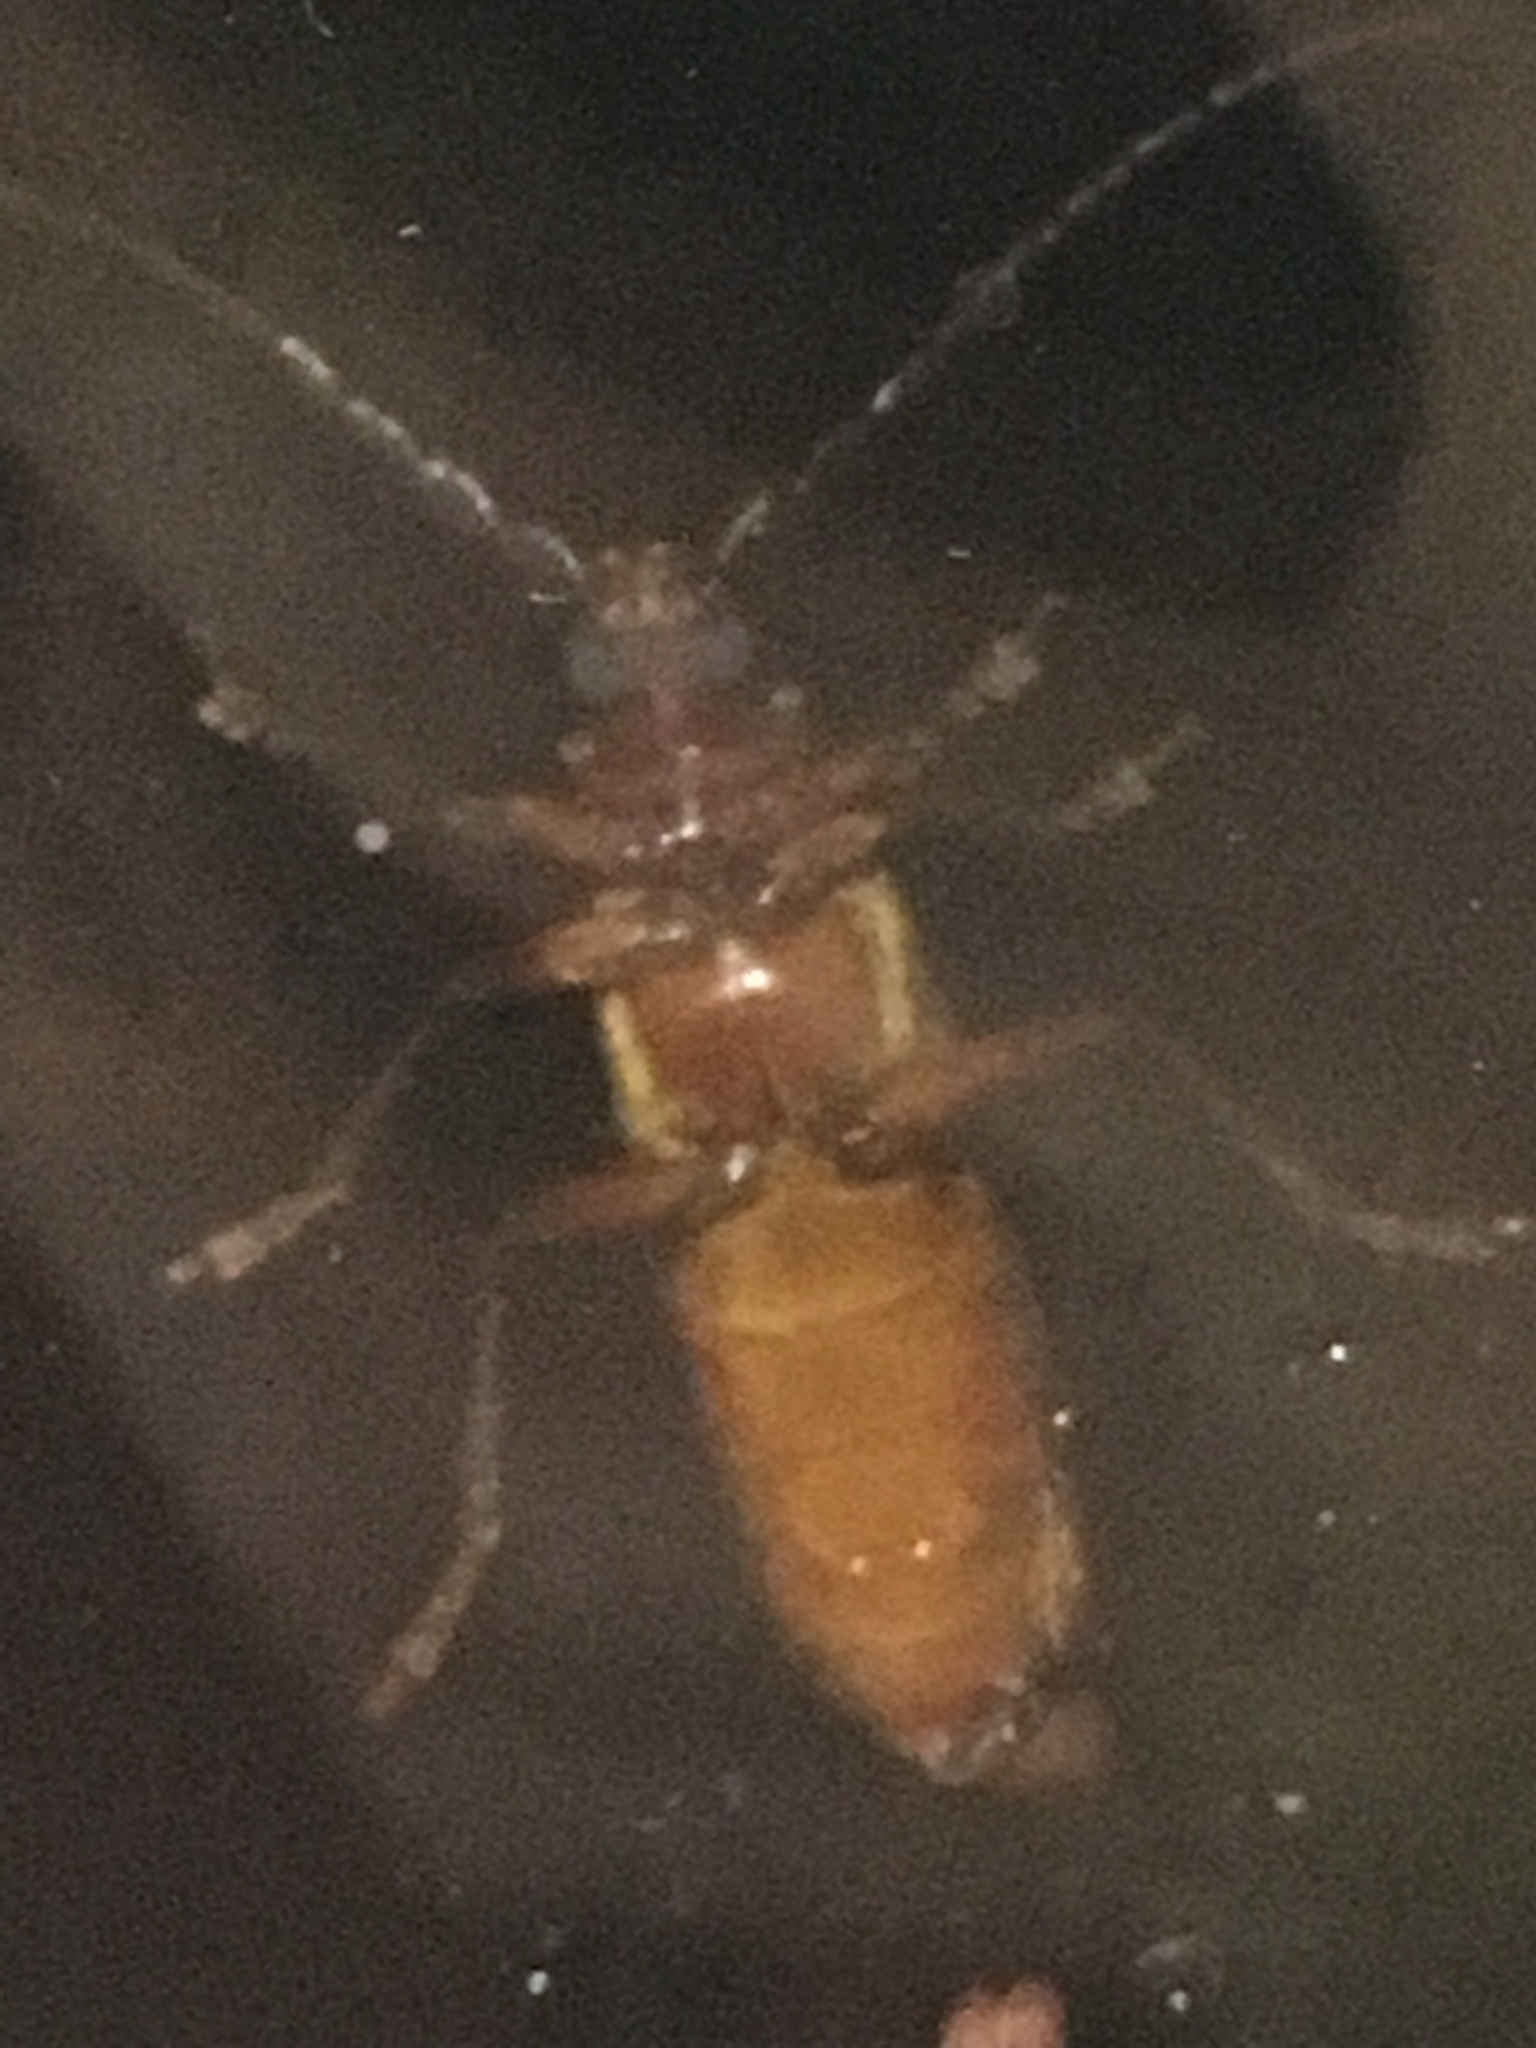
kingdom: Animalia
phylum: Arthropoda
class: Insecta
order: Coleoptera
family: Cerambycidae
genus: Orthosoma
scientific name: Orthosoma brunneum
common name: Brown prionid beetle
